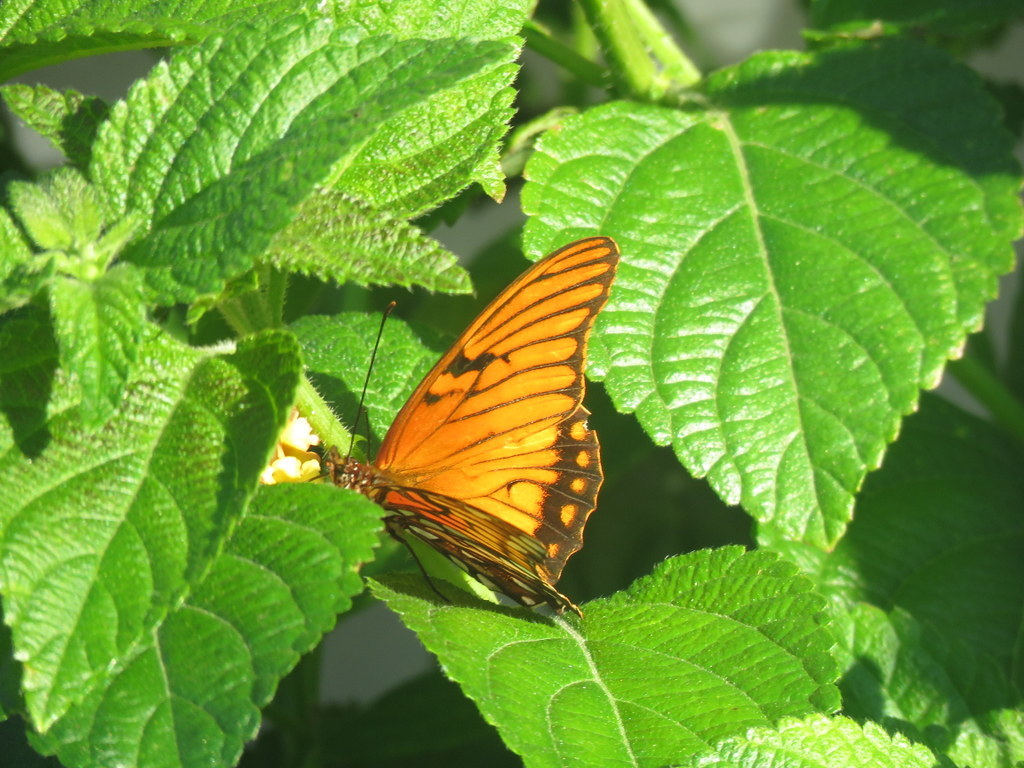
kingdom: Animalia
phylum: Arthropoda
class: Insecta
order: Lepidoptera
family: Nymphalidae
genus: Dione
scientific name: Dione moneta
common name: Mexican silverspot
